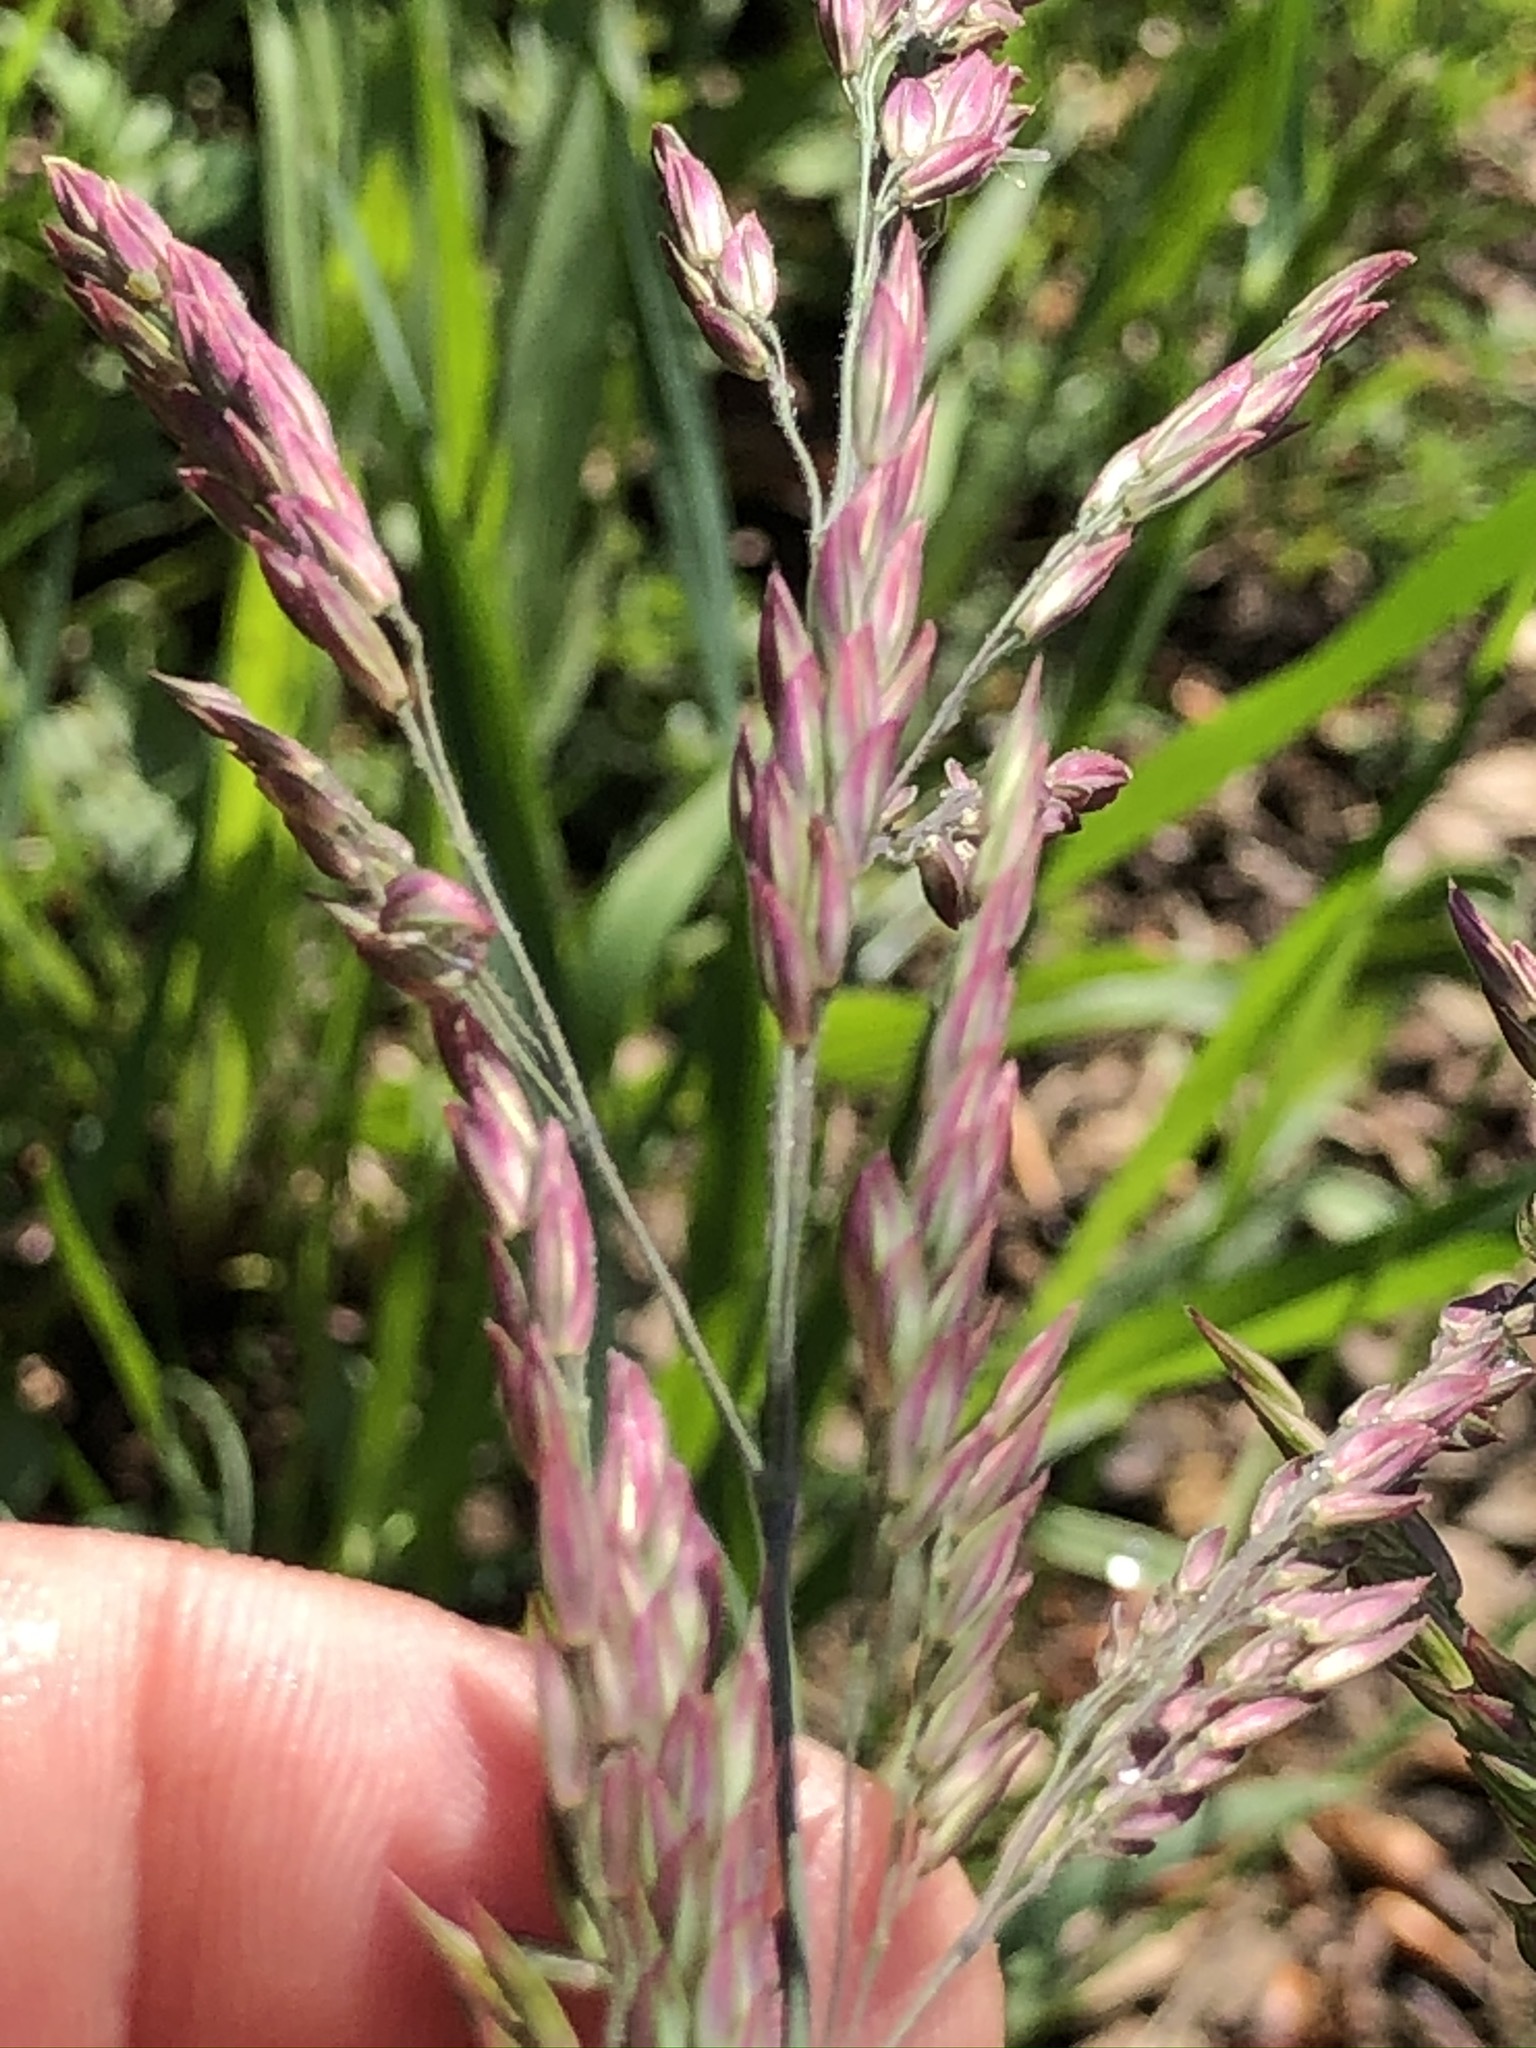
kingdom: Plantae
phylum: Tracheophyta
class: Liliopsida
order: Poales
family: Poaceae
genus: Holcus
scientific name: Holcus lanatus
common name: Yorkshire-fog
